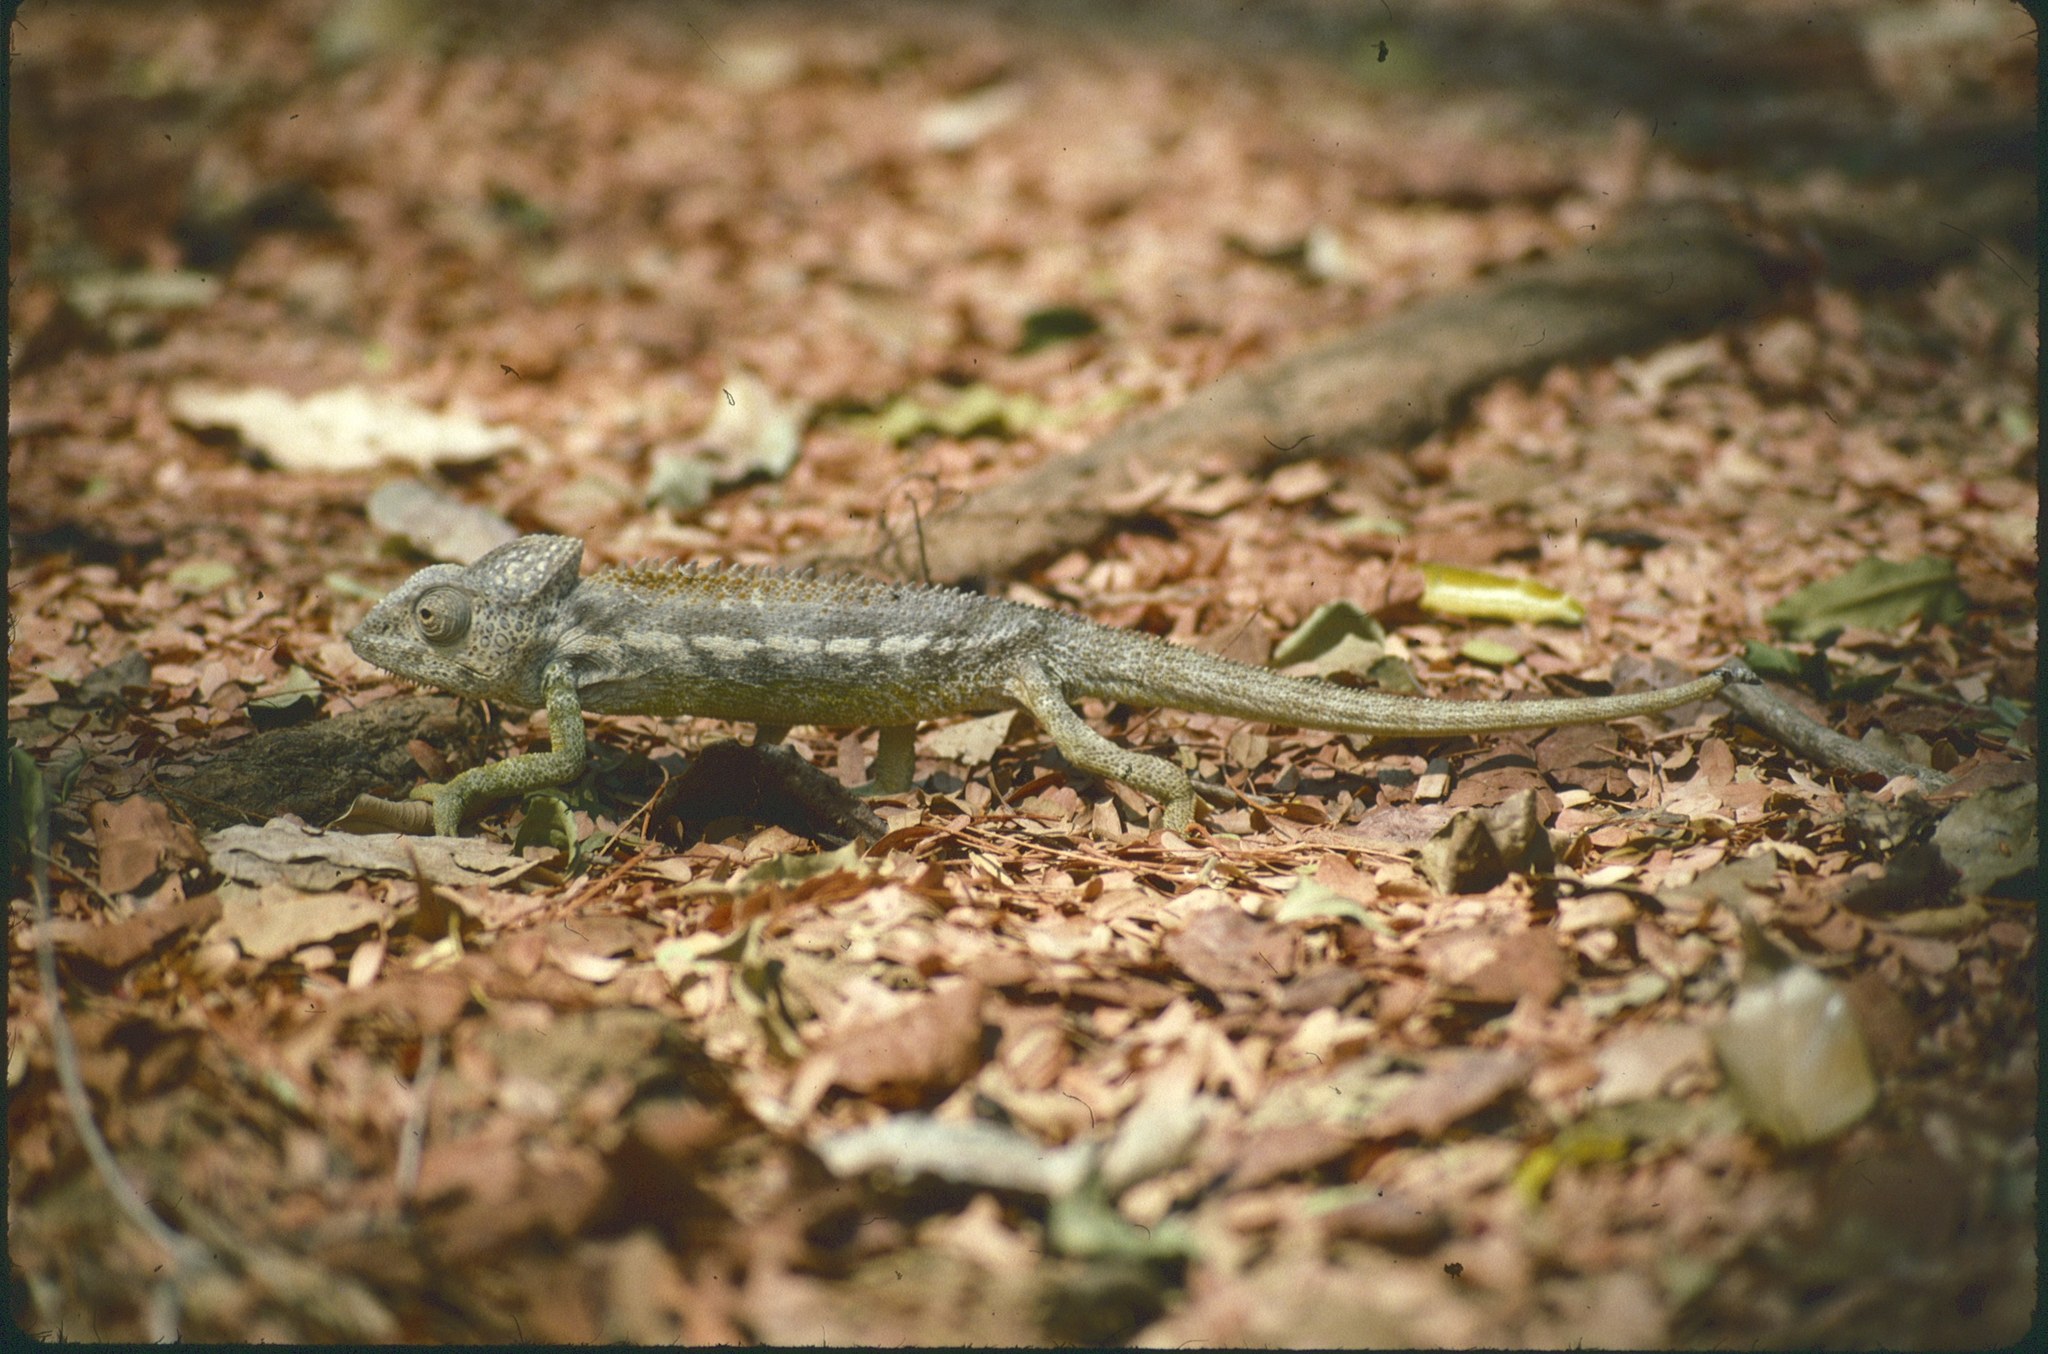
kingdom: Animalia
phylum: Chordata
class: Squamata
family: Chamaeleonidae
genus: Furcifer
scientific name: Furcifer verrucosus
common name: Warty chameleon
